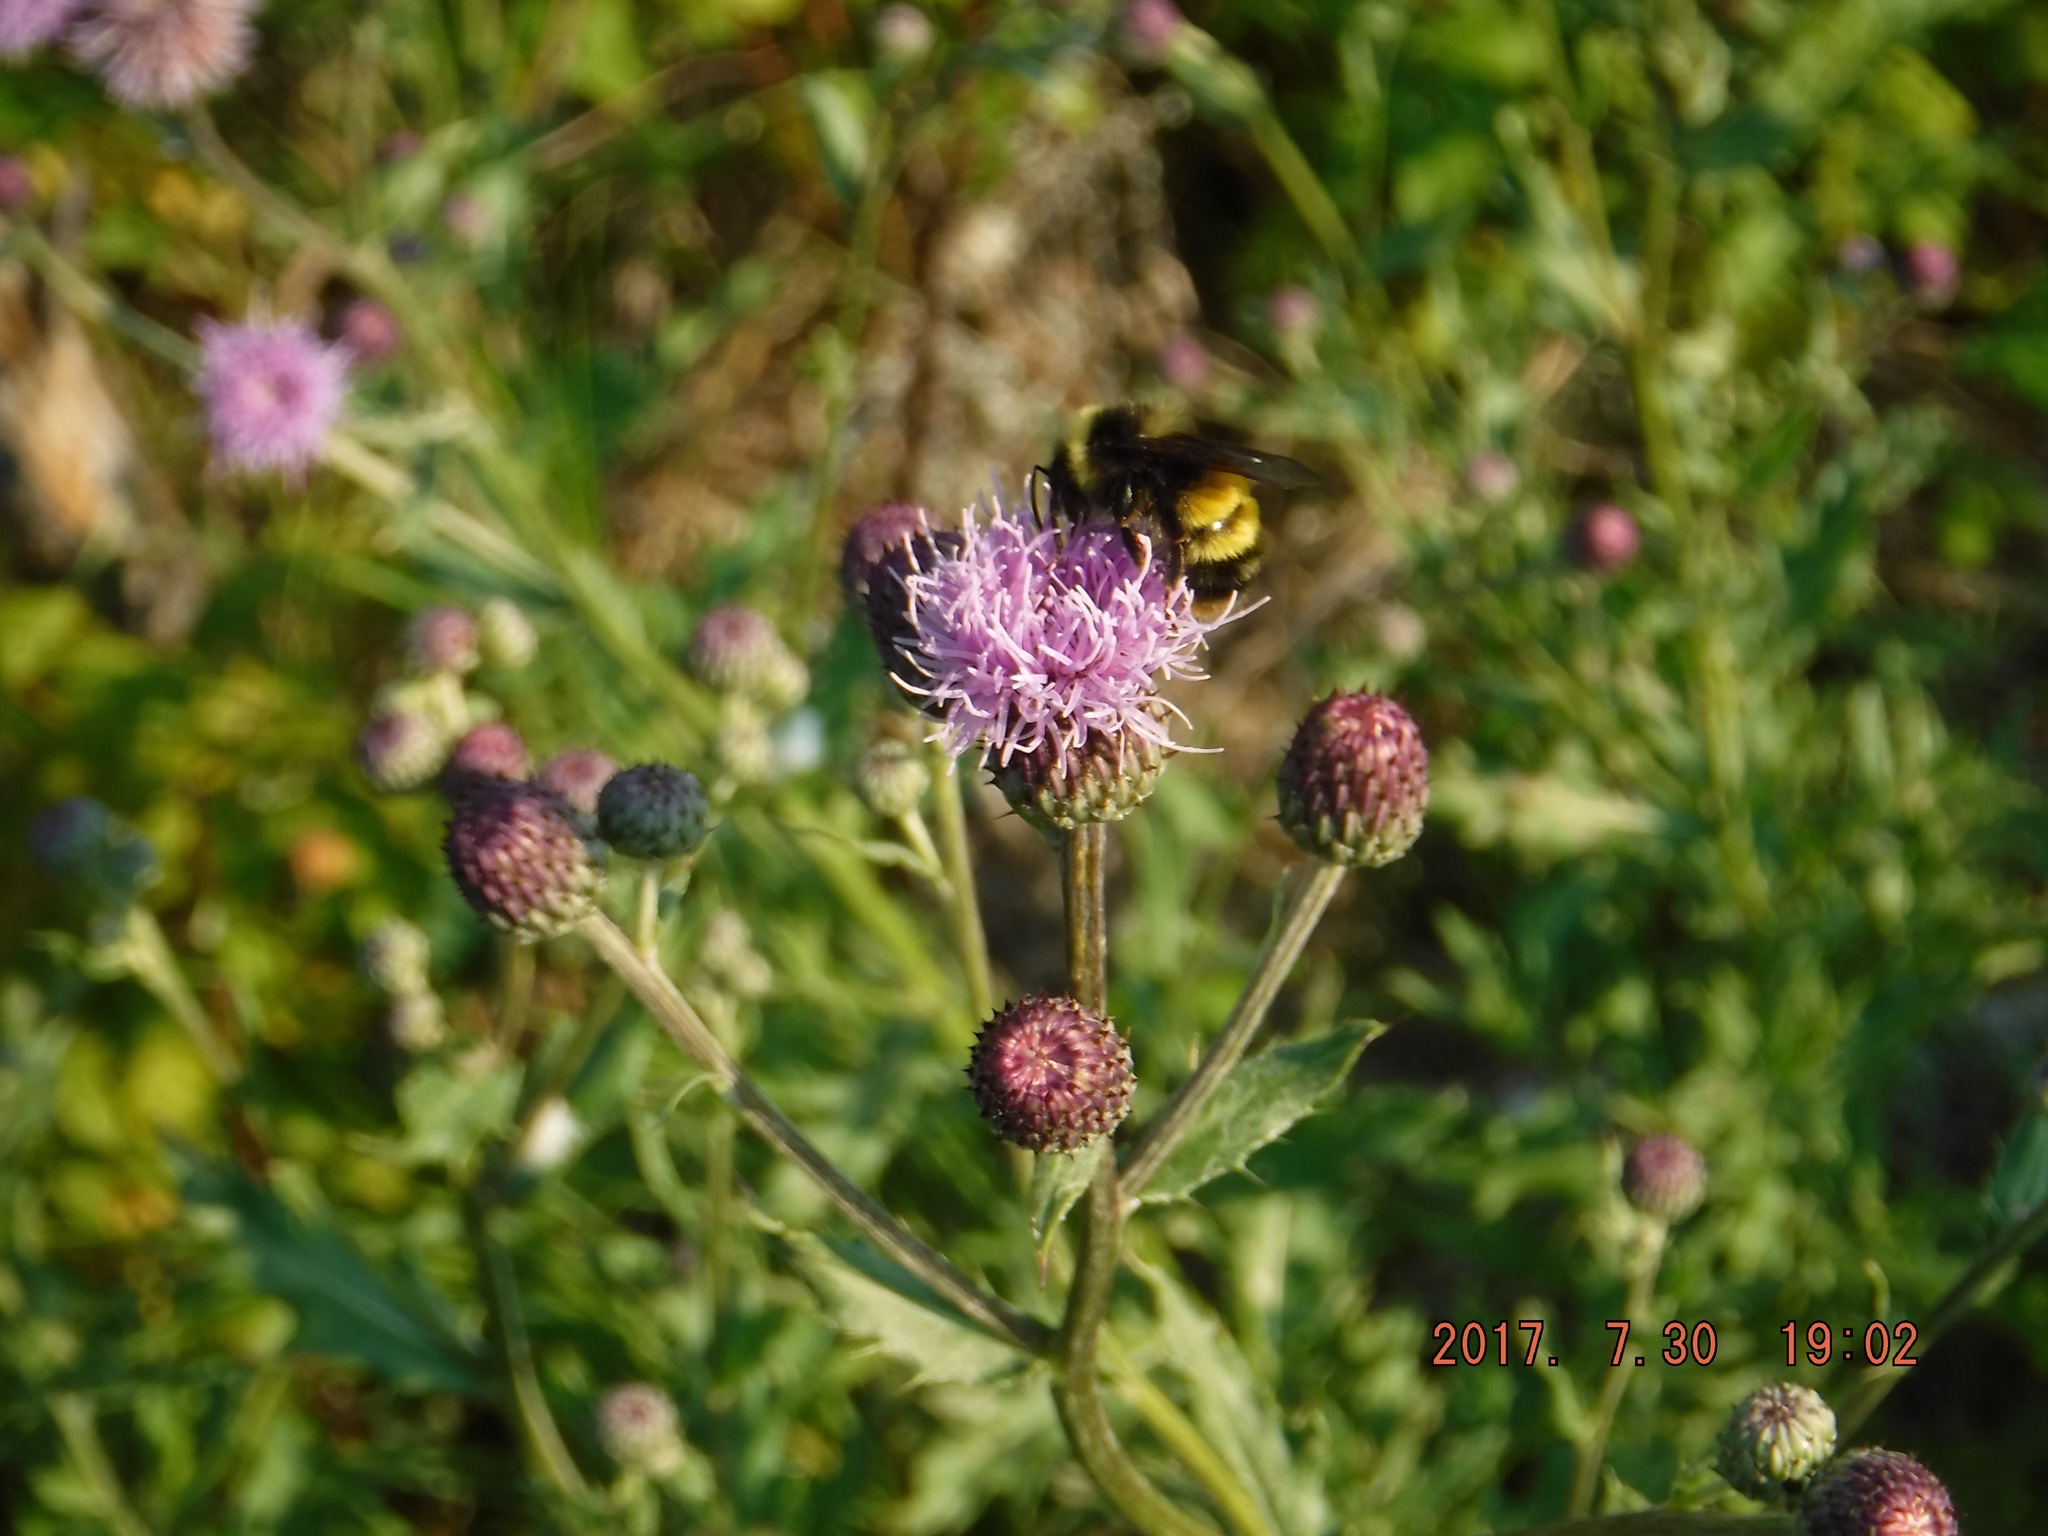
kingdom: Animalia
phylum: Arthropoda
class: Insecta
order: Hymenoptera
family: Apidae
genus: Bombus
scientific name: Bombus terricola
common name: Yellow-banded bumble bee
